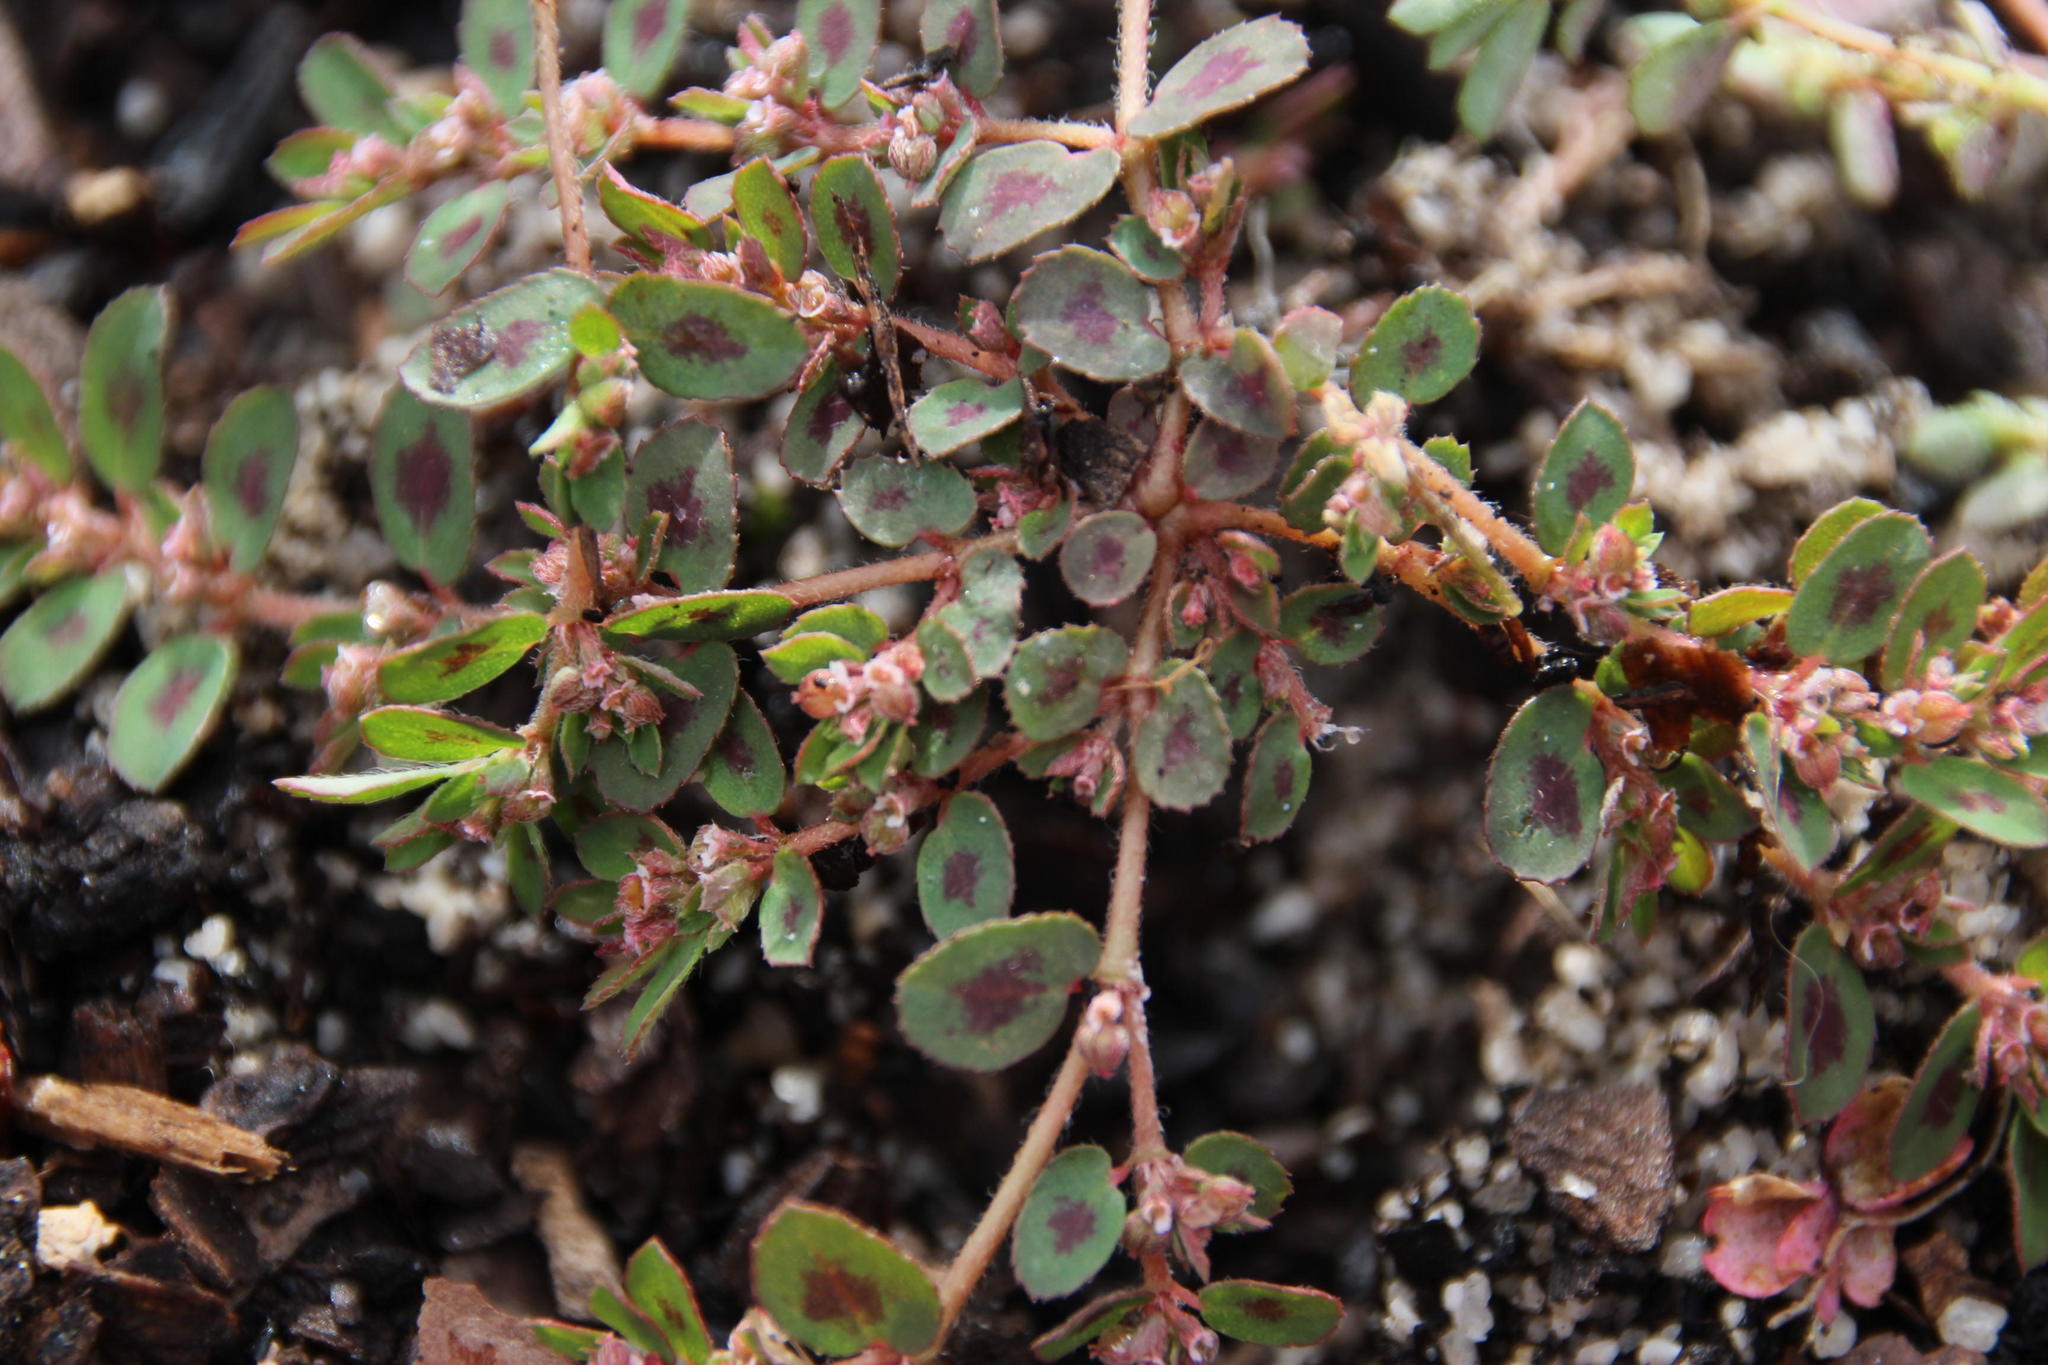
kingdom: Plantae
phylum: Tracheophyta
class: Magnoliopsida
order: Malpighiales
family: Euphorbiaceae
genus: Euphorbia
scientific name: Euphorbia maculata
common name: Spotted spurge
